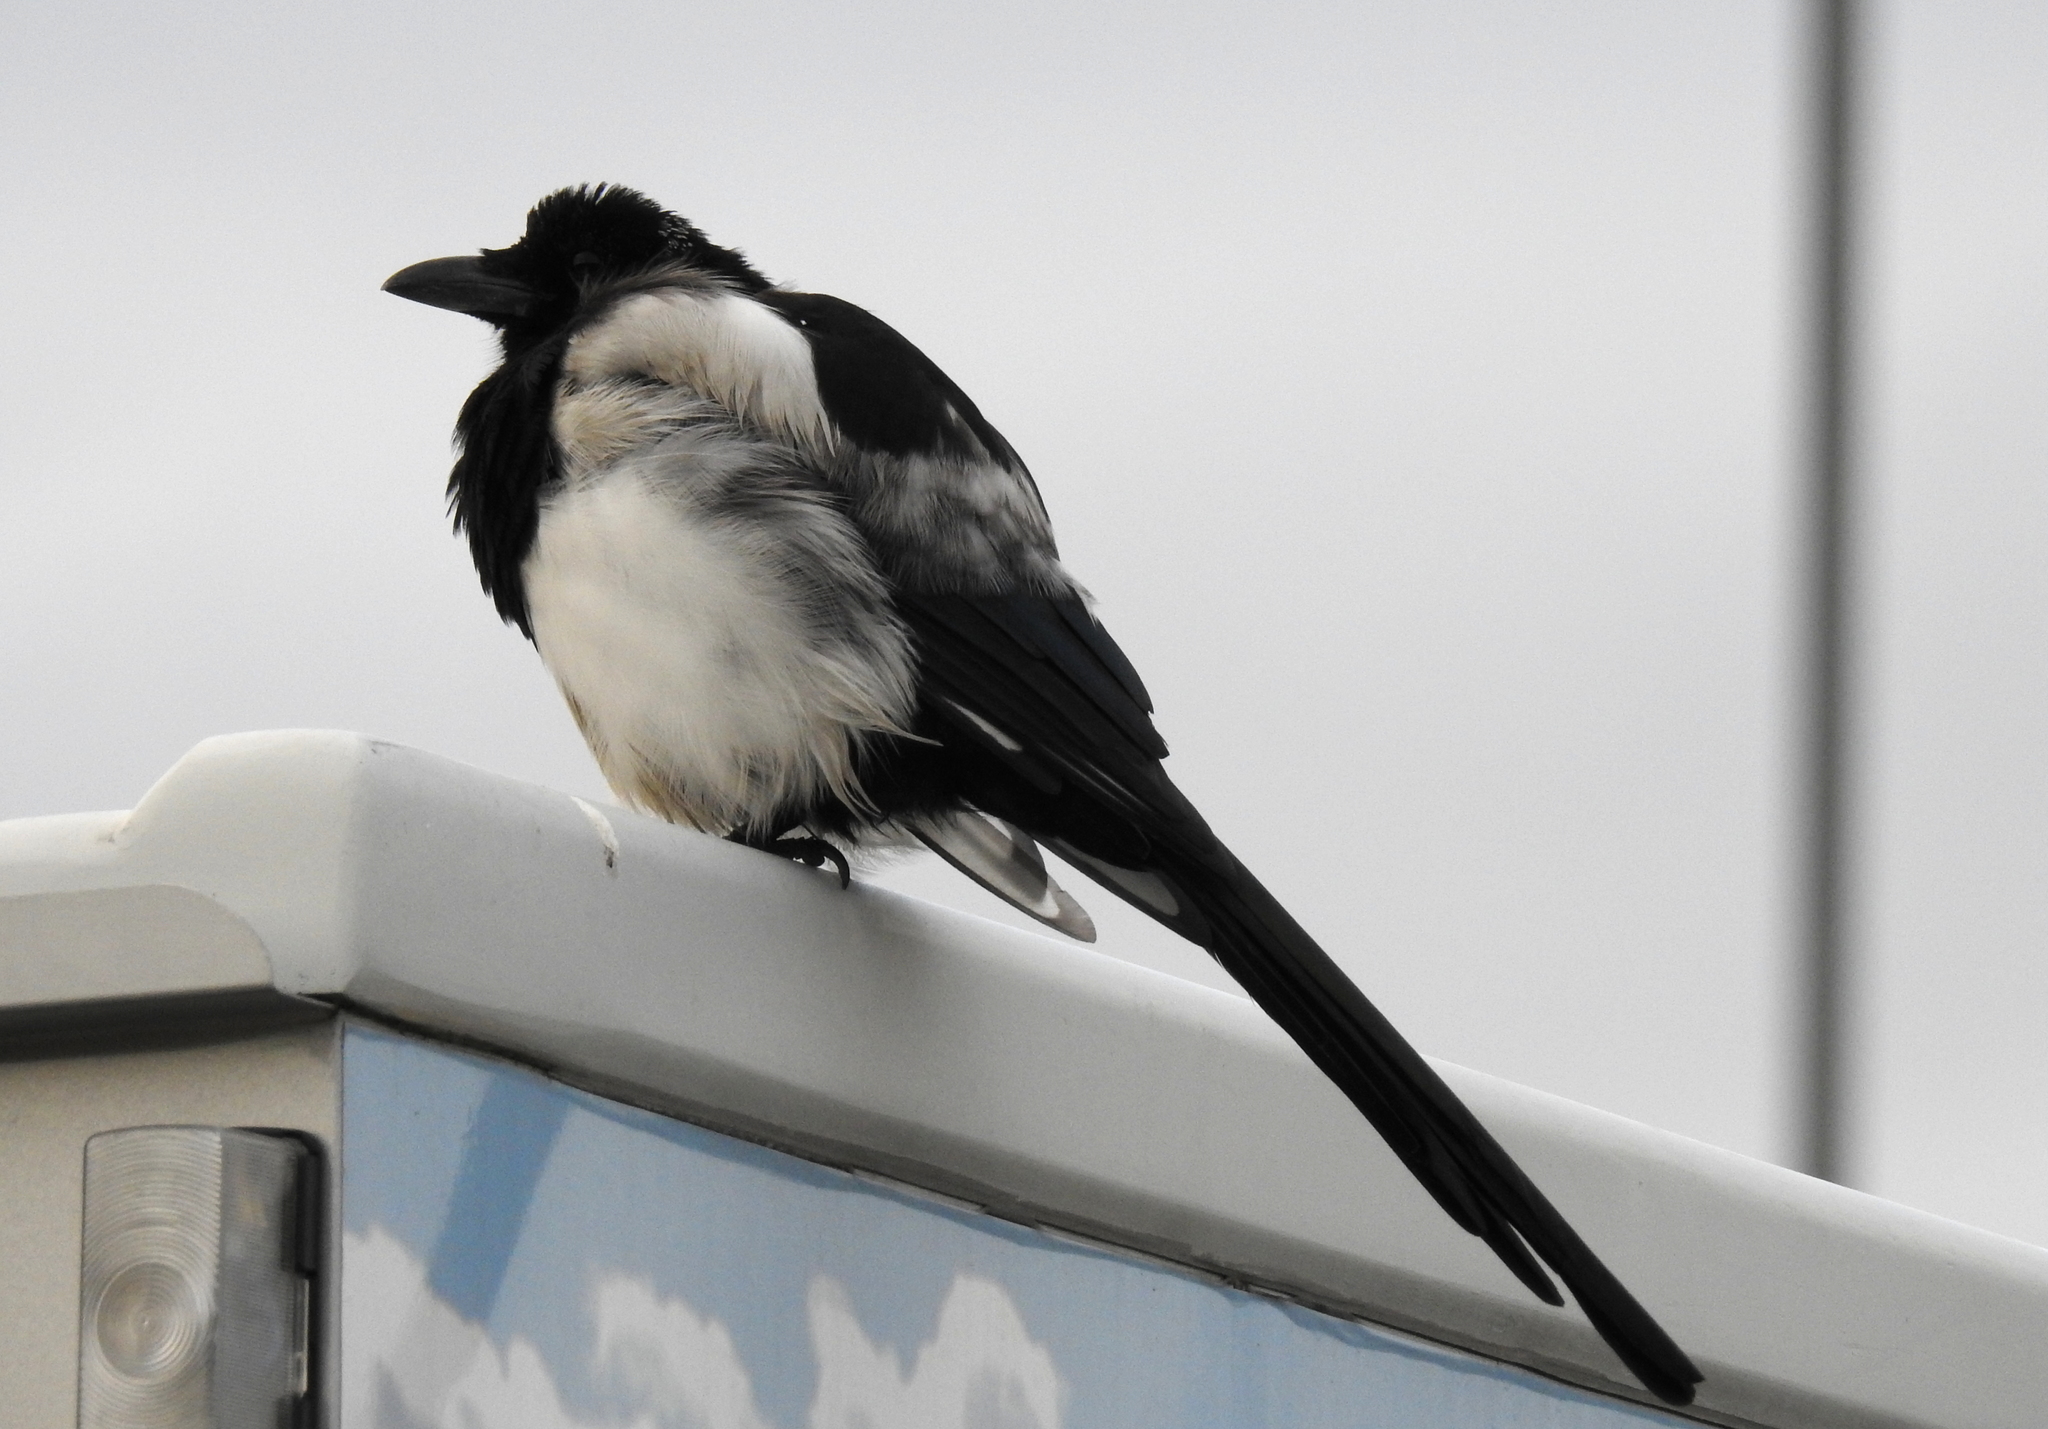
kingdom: Animalia
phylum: Chordata
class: Aves
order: Passeriformes
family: Corvidae
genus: Pica
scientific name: Pica pica
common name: Eurasian magpie
